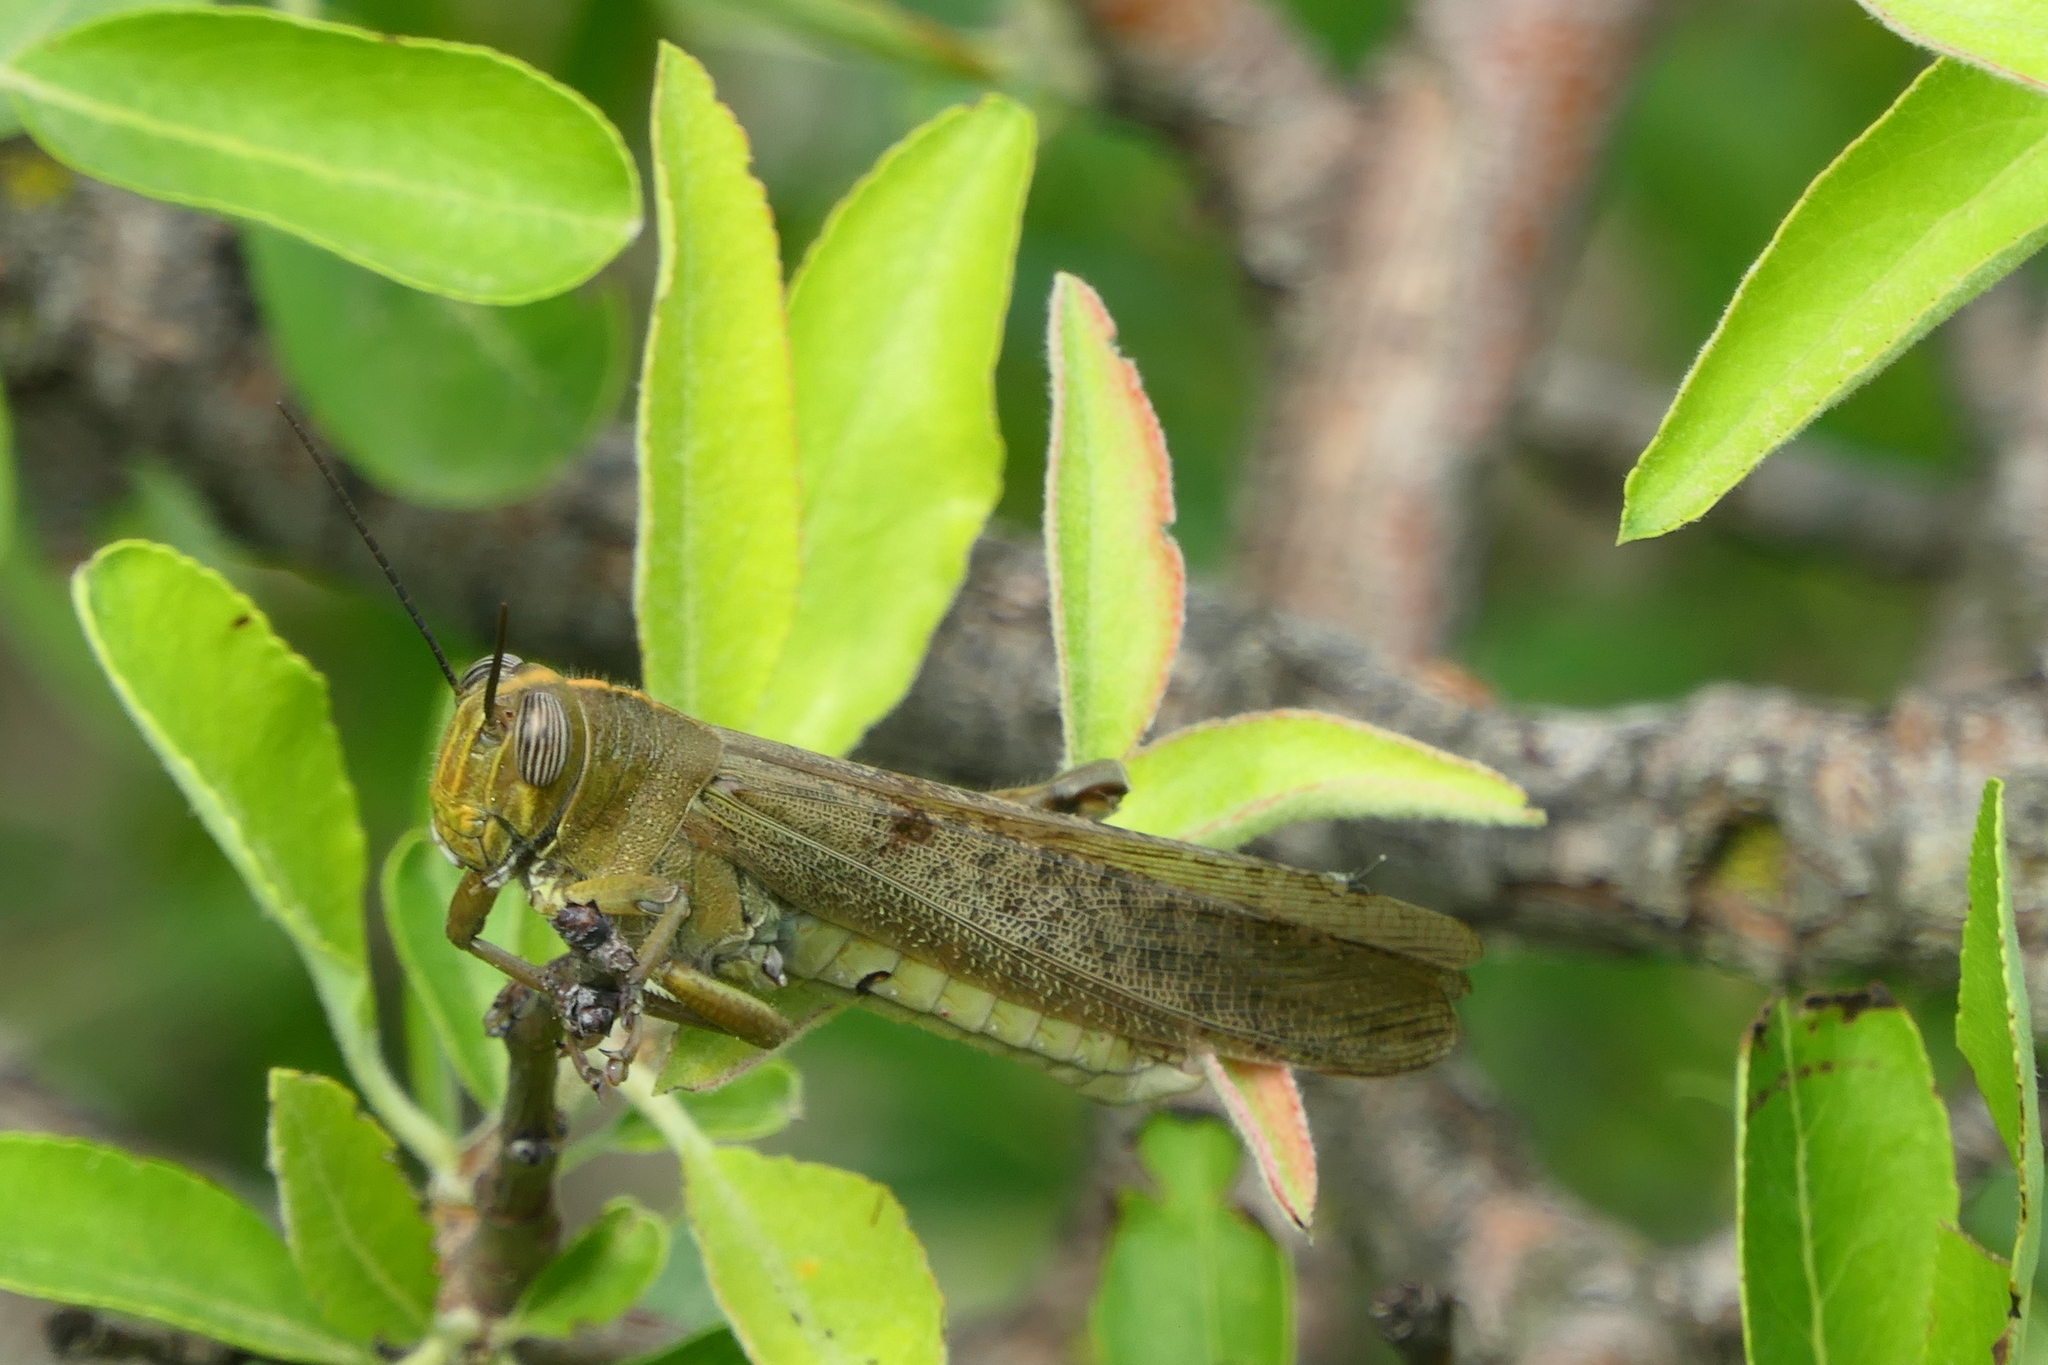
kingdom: Animalia
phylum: Arthropoda
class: Insecta
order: Orthoptera
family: Acrididae
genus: Anacridium
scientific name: Anacridium aegyptium
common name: Egyptian grasshopper
